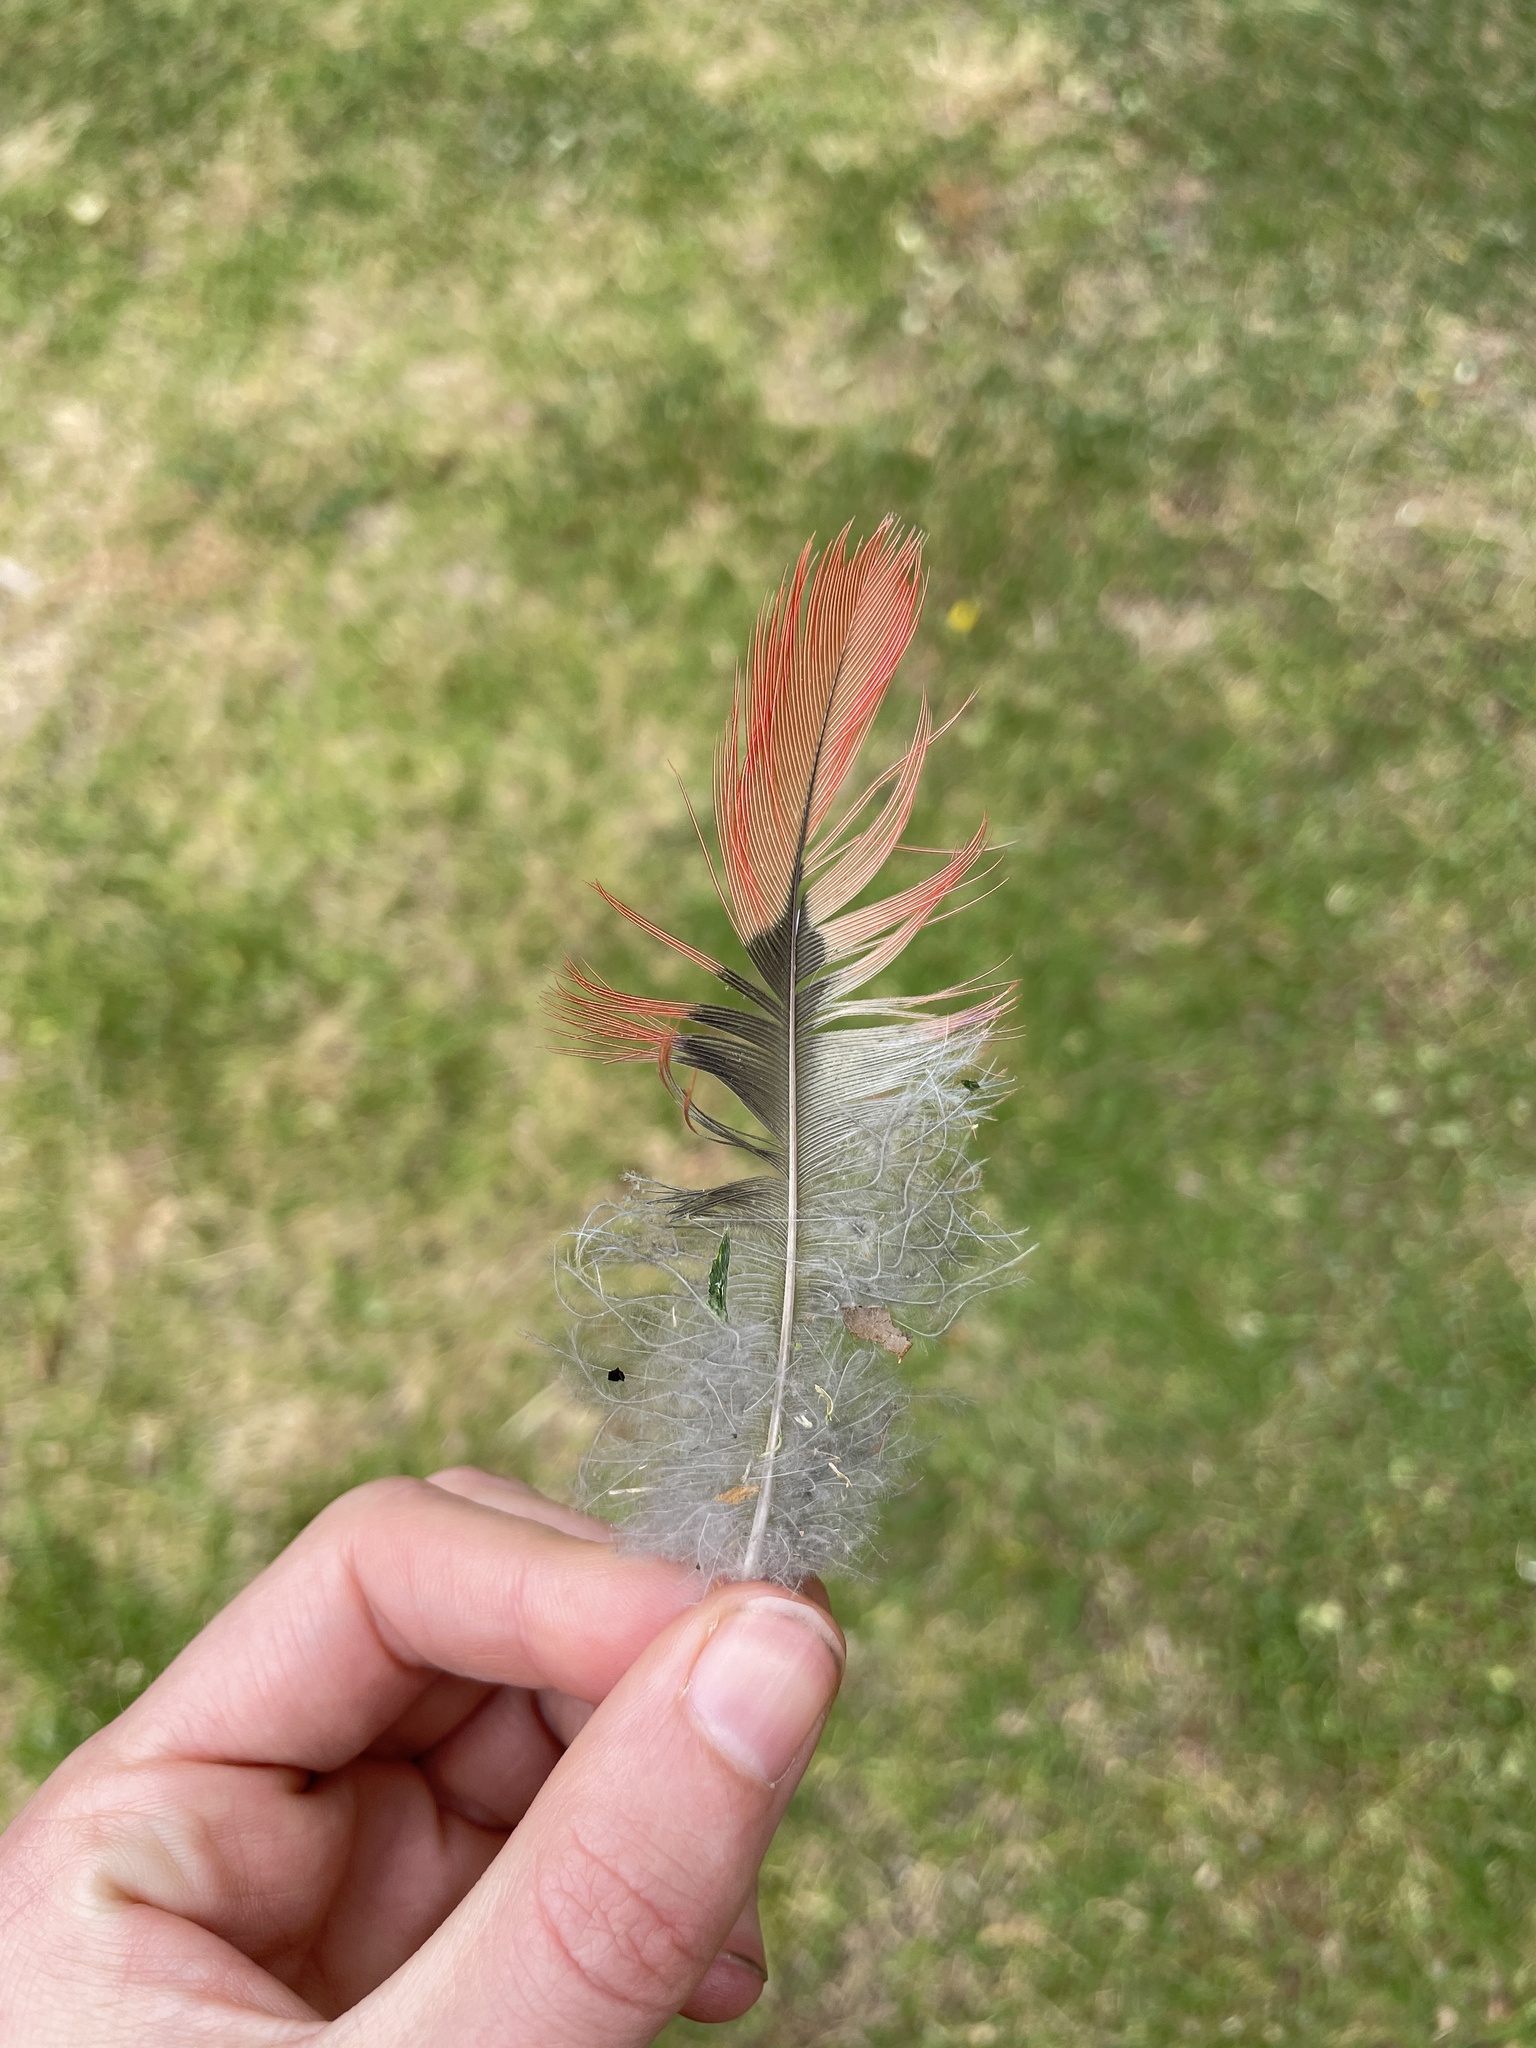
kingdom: Animalia
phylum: Chordata
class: Aves
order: Psittaciformes
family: Psittacidae
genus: Alisterus
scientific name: Alisterus scapularis
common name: Australian king parrot
